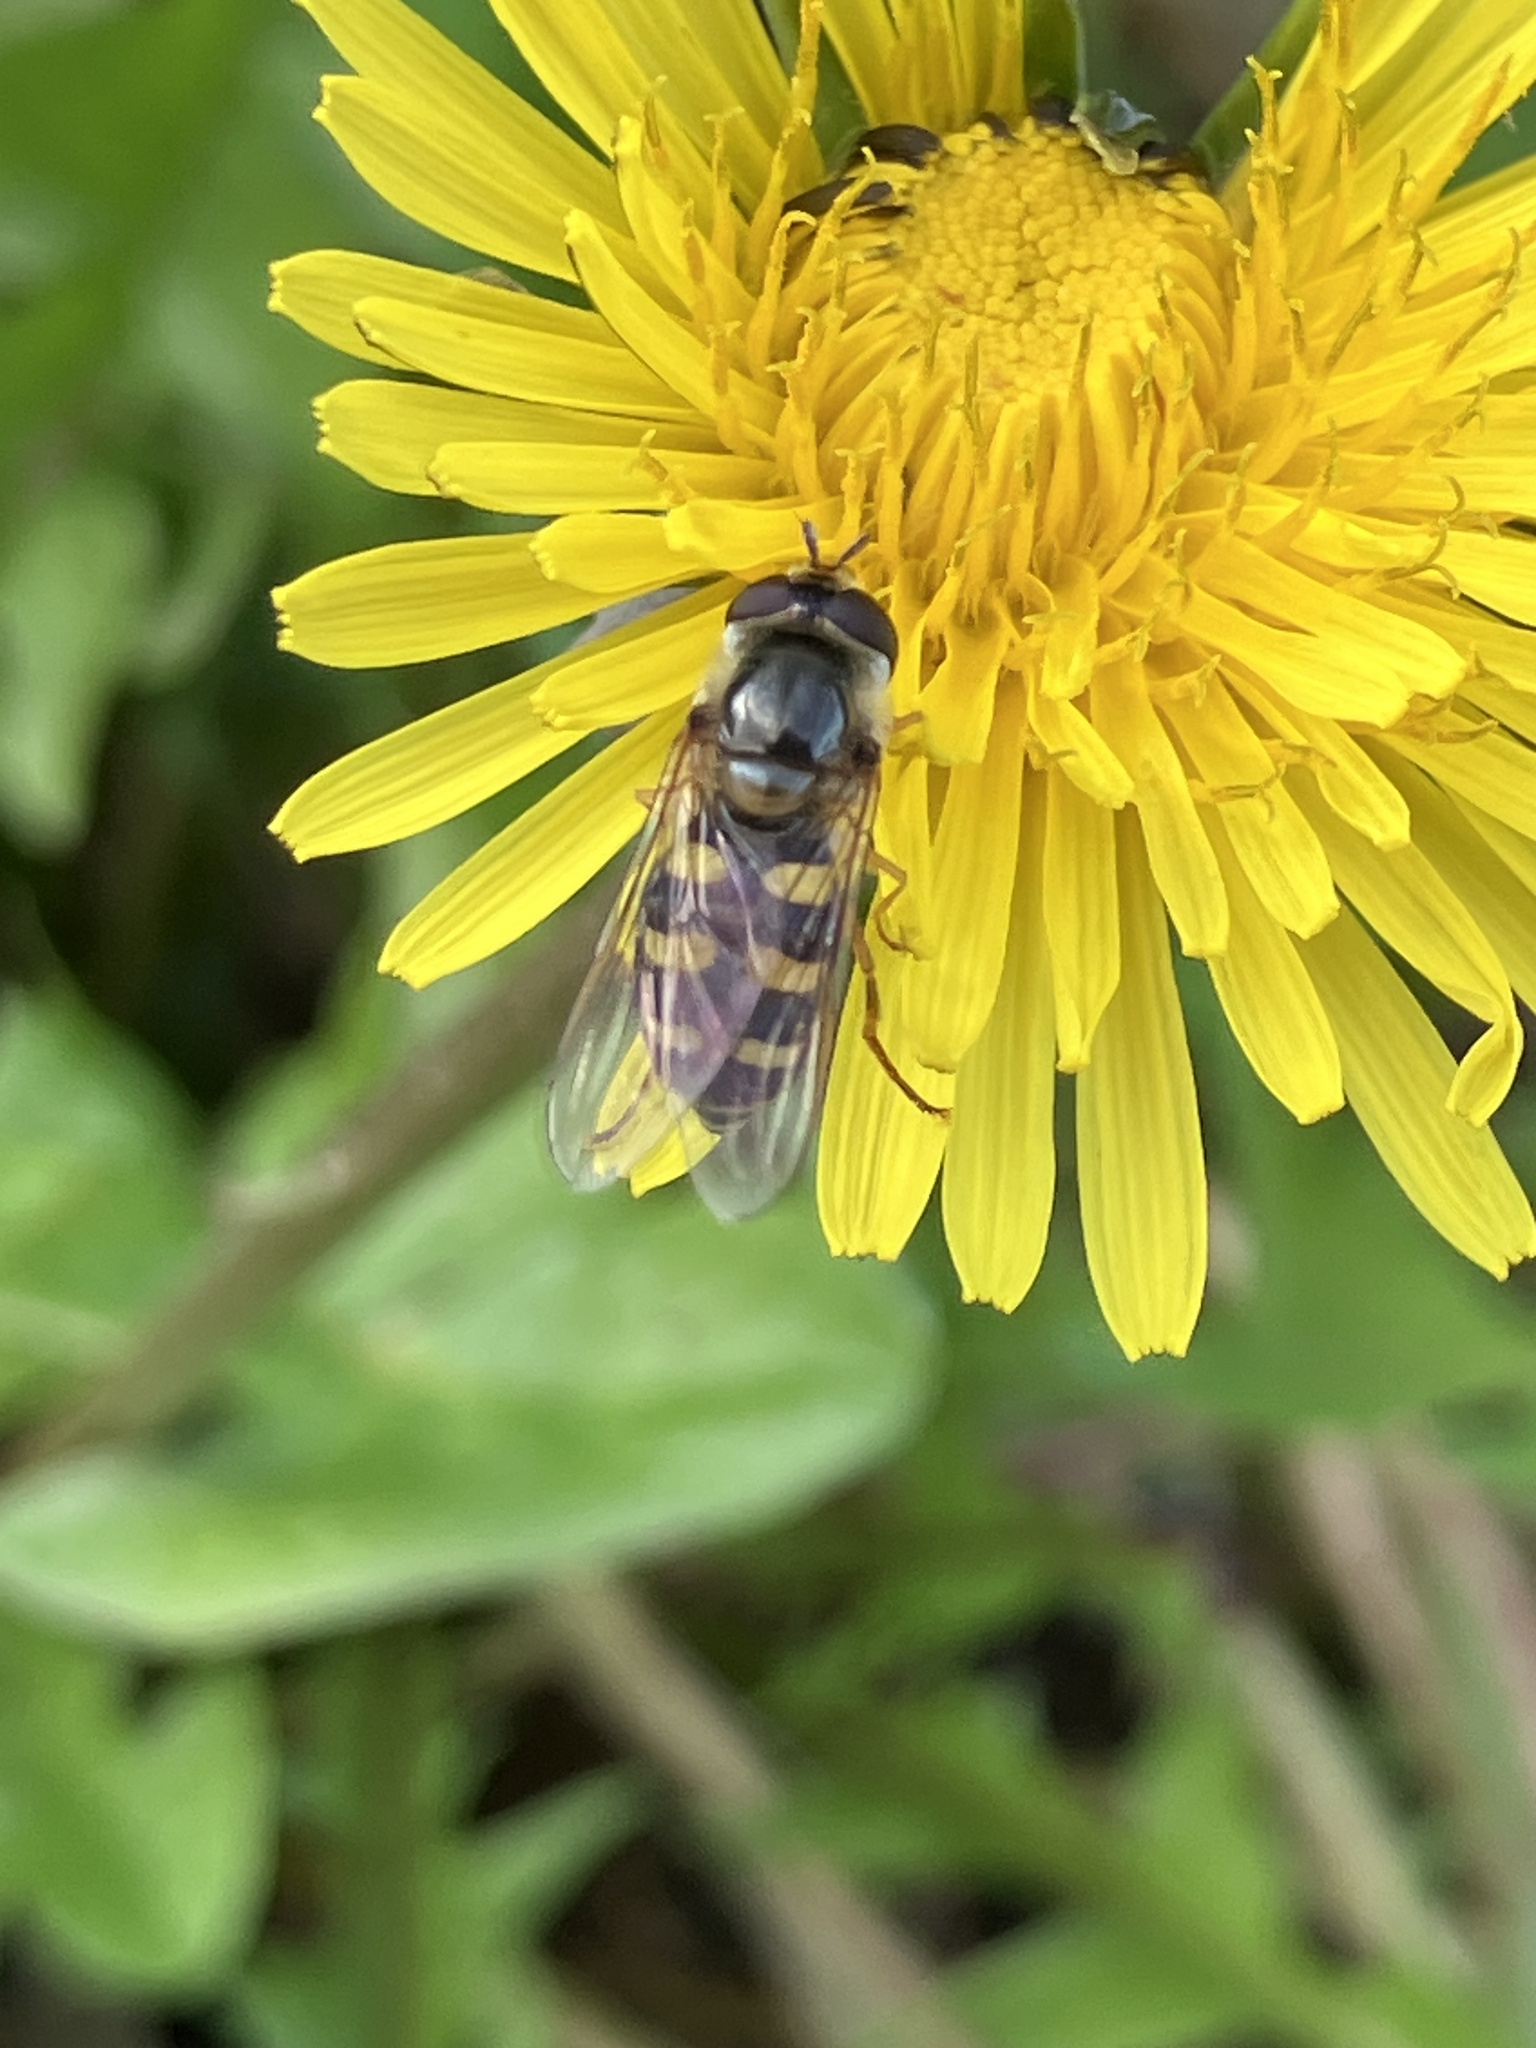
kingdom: Animalia
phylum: Arthropoda
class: Insecta
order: Diptera
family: Syrphidae
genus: Eupeodes
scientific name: Eupeodes
